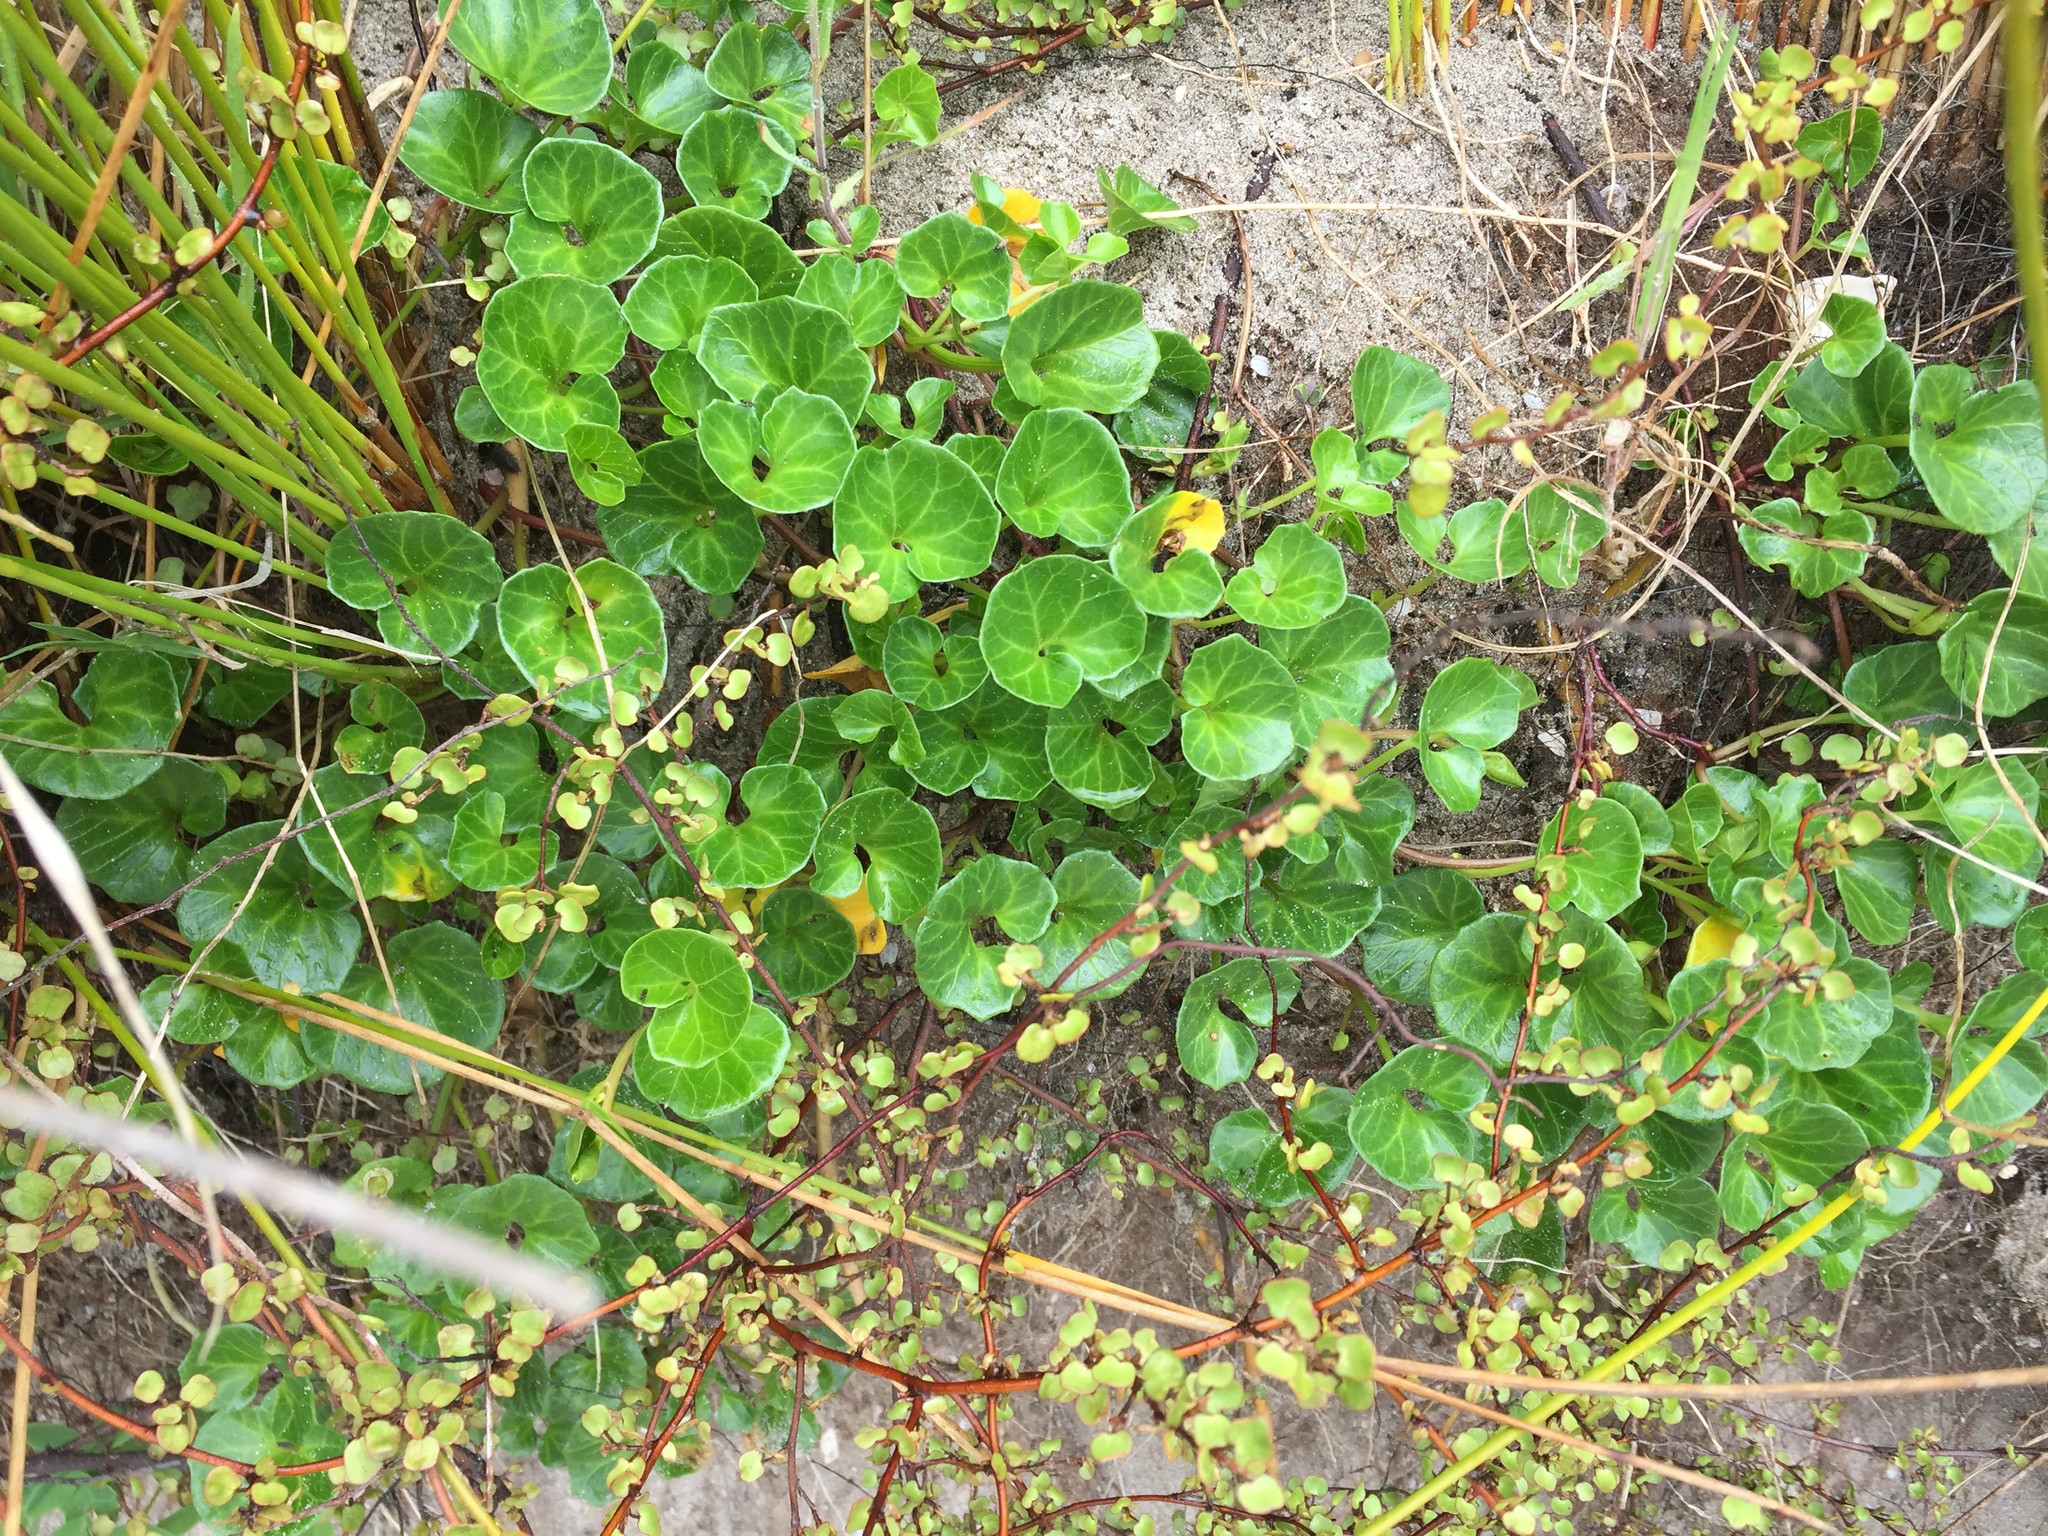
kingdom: Plantae
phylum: Tracheophyta
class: Magnoliopsida
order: Solanales
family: Convolvulaceae
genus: Calystegia
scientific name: Calystegia soldanella
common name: Sea bindweed
